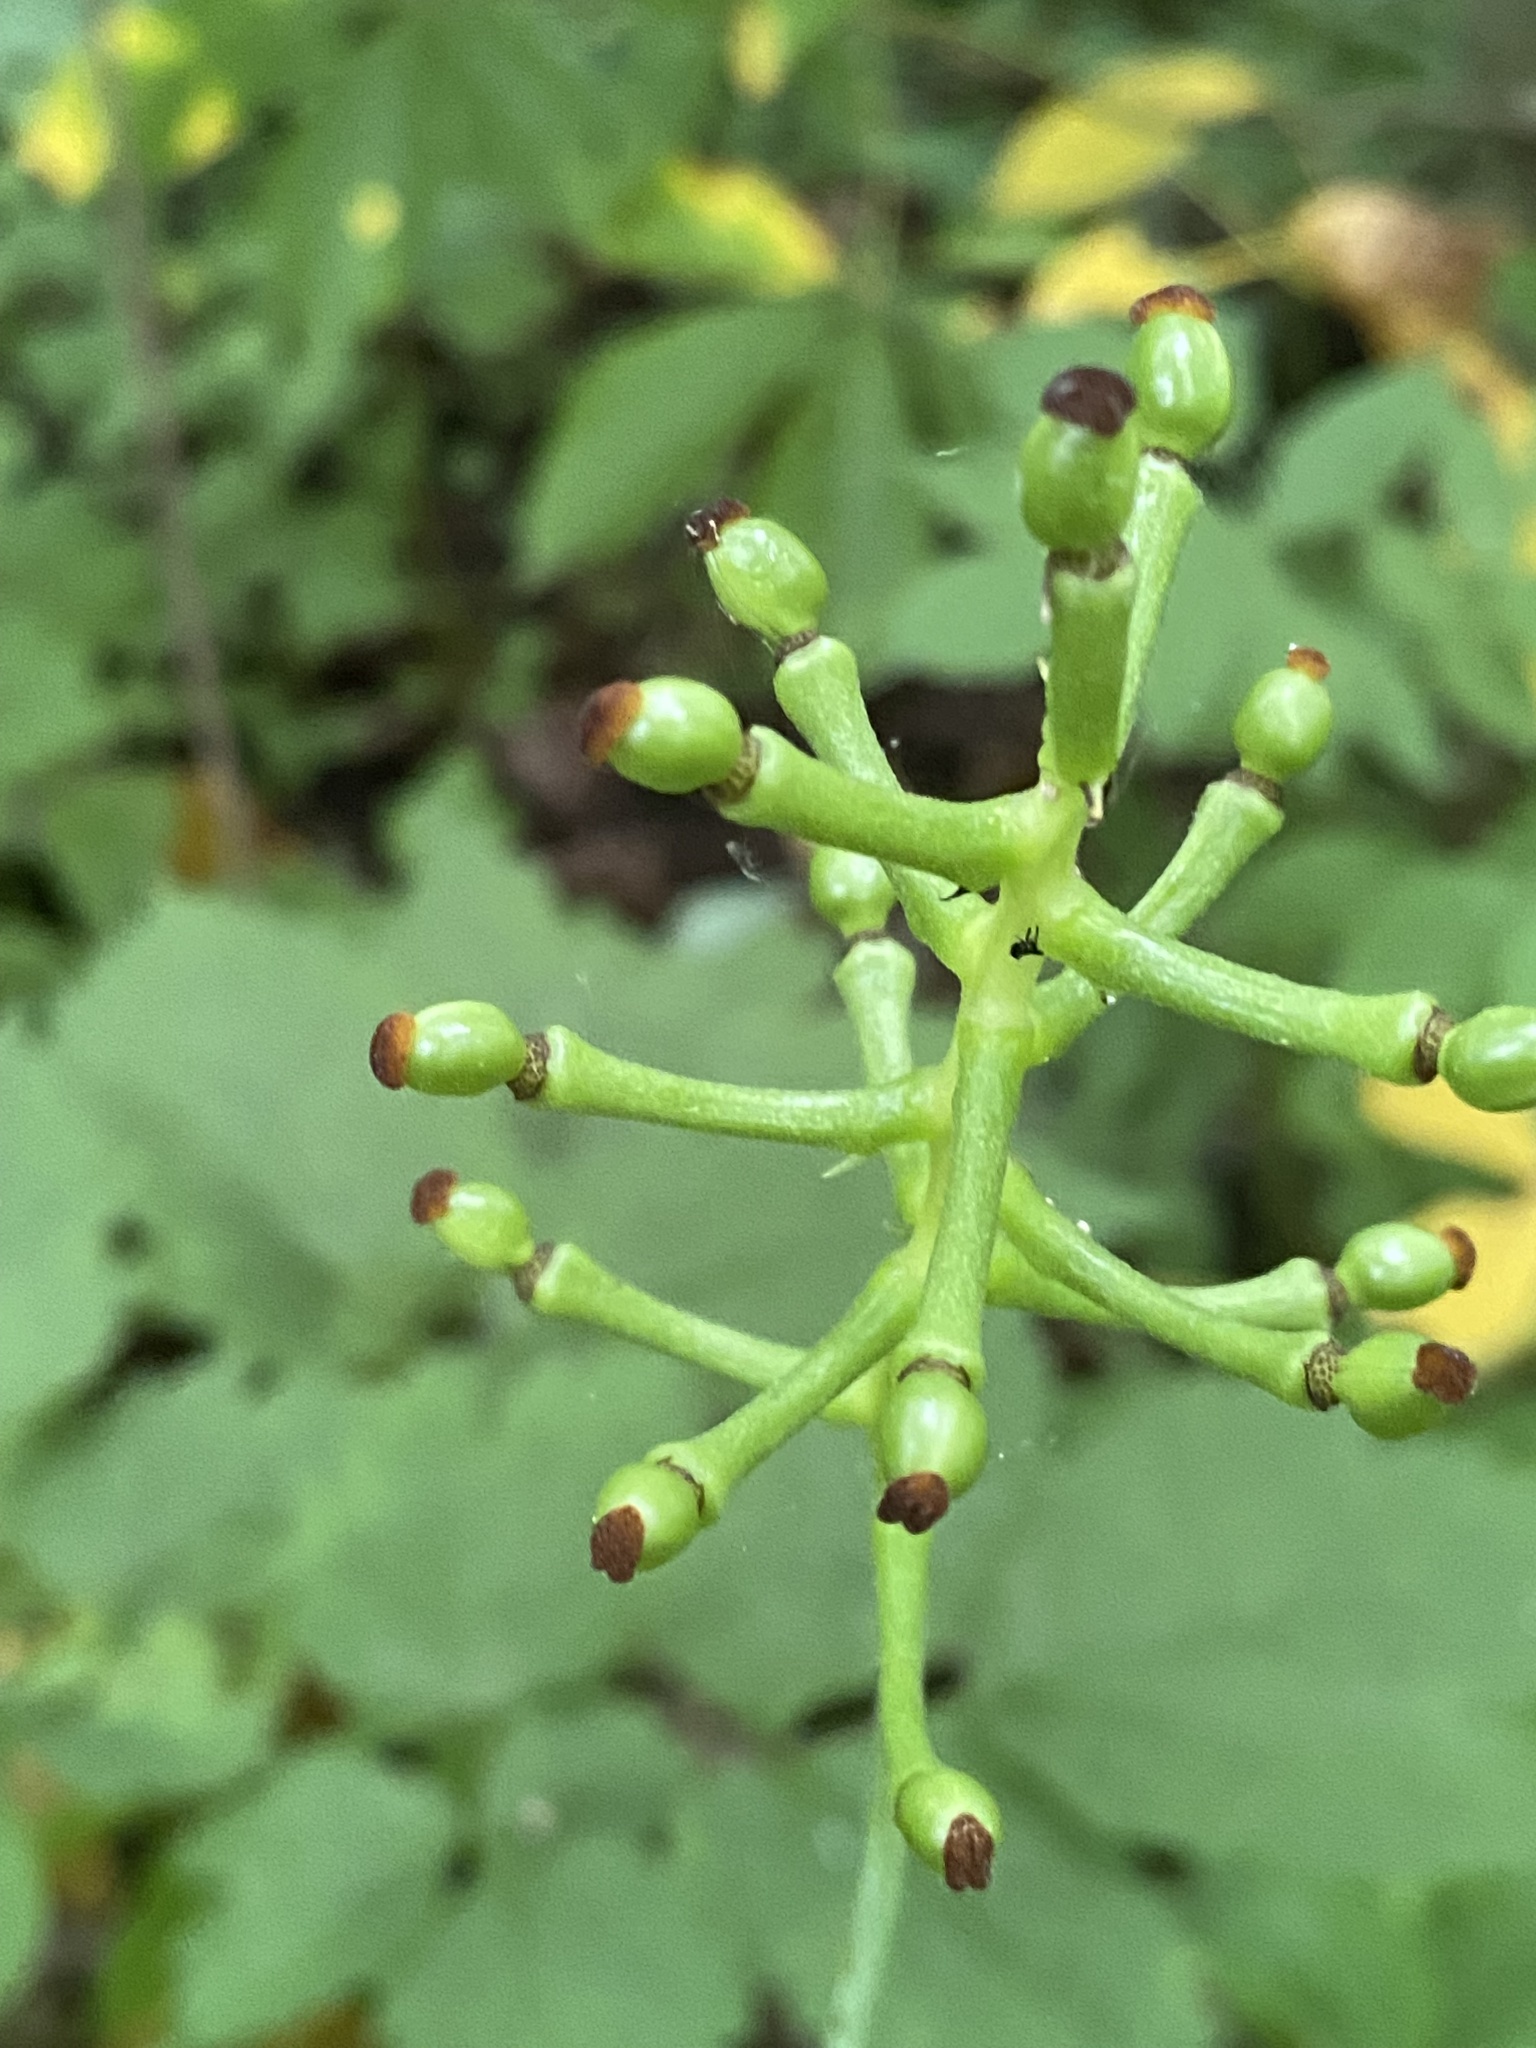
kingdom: Plantae
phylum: Tracheophyta
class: Magnoliopsida
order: Ranunculales
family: Ranunculaceae
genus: Actaea
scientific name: Actaea pachypoda
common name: Doll's-eyes
